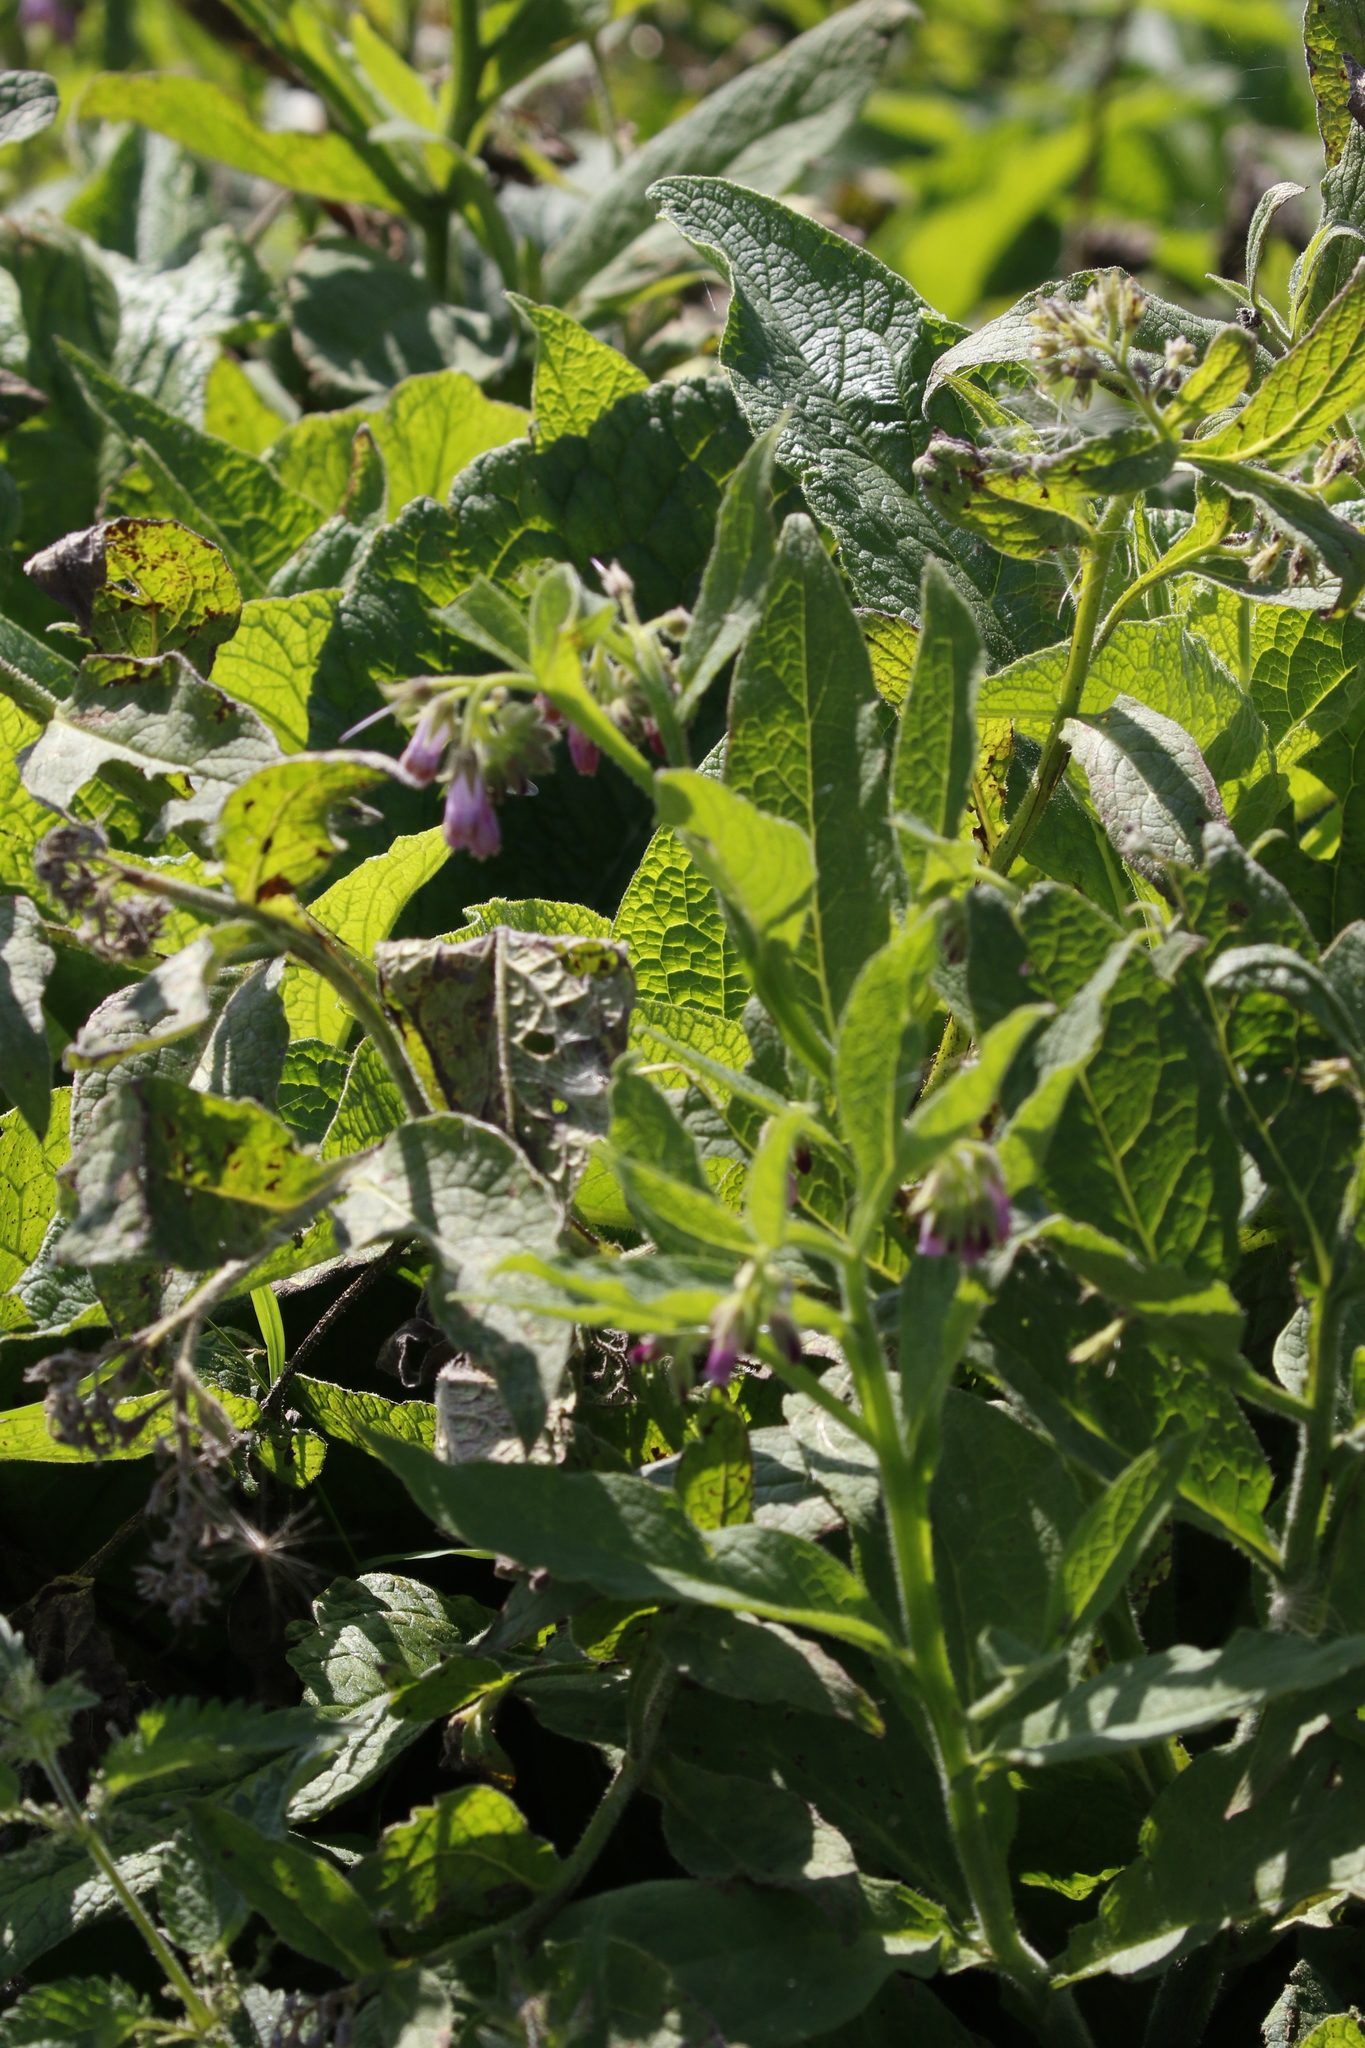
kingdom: Plantae
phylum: Tracheophyta
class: Magnoliopsida
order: Boraginales
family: Boraginaceae
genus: Symphytum
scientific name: Symphytum officinale
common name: Common comfrey
